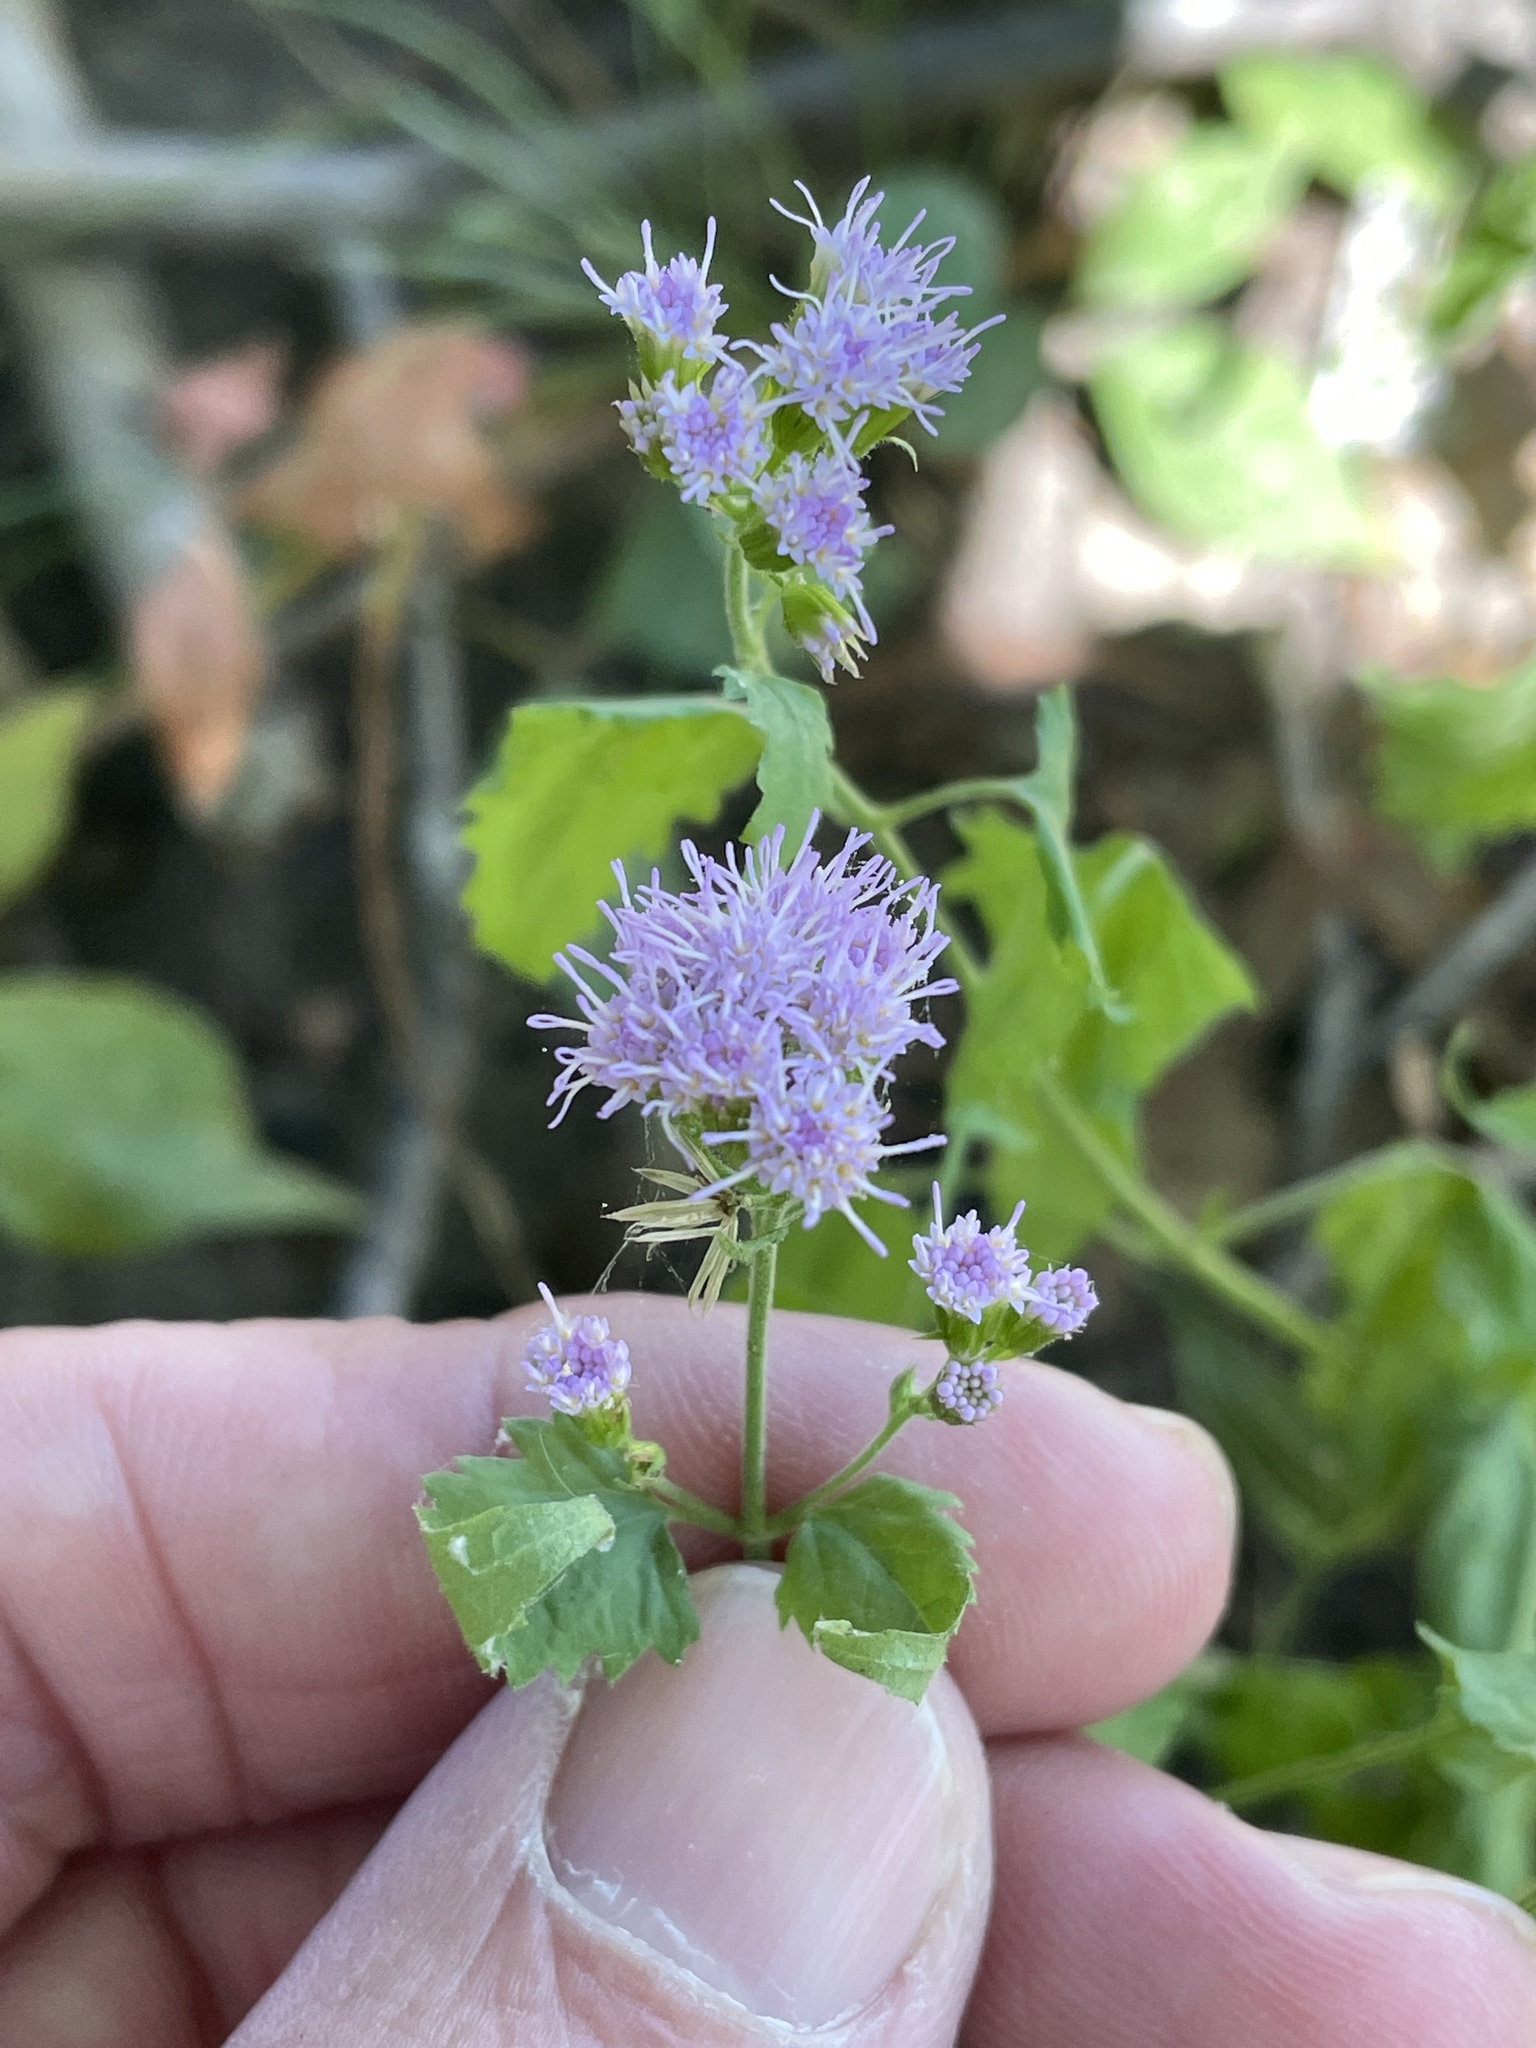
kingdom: Plantae
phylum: Tracheophyta
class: Magnoliopsida
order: Asterales
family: Asteraceae
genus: Fleischmannia
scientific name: Fleischmannia incarnata
